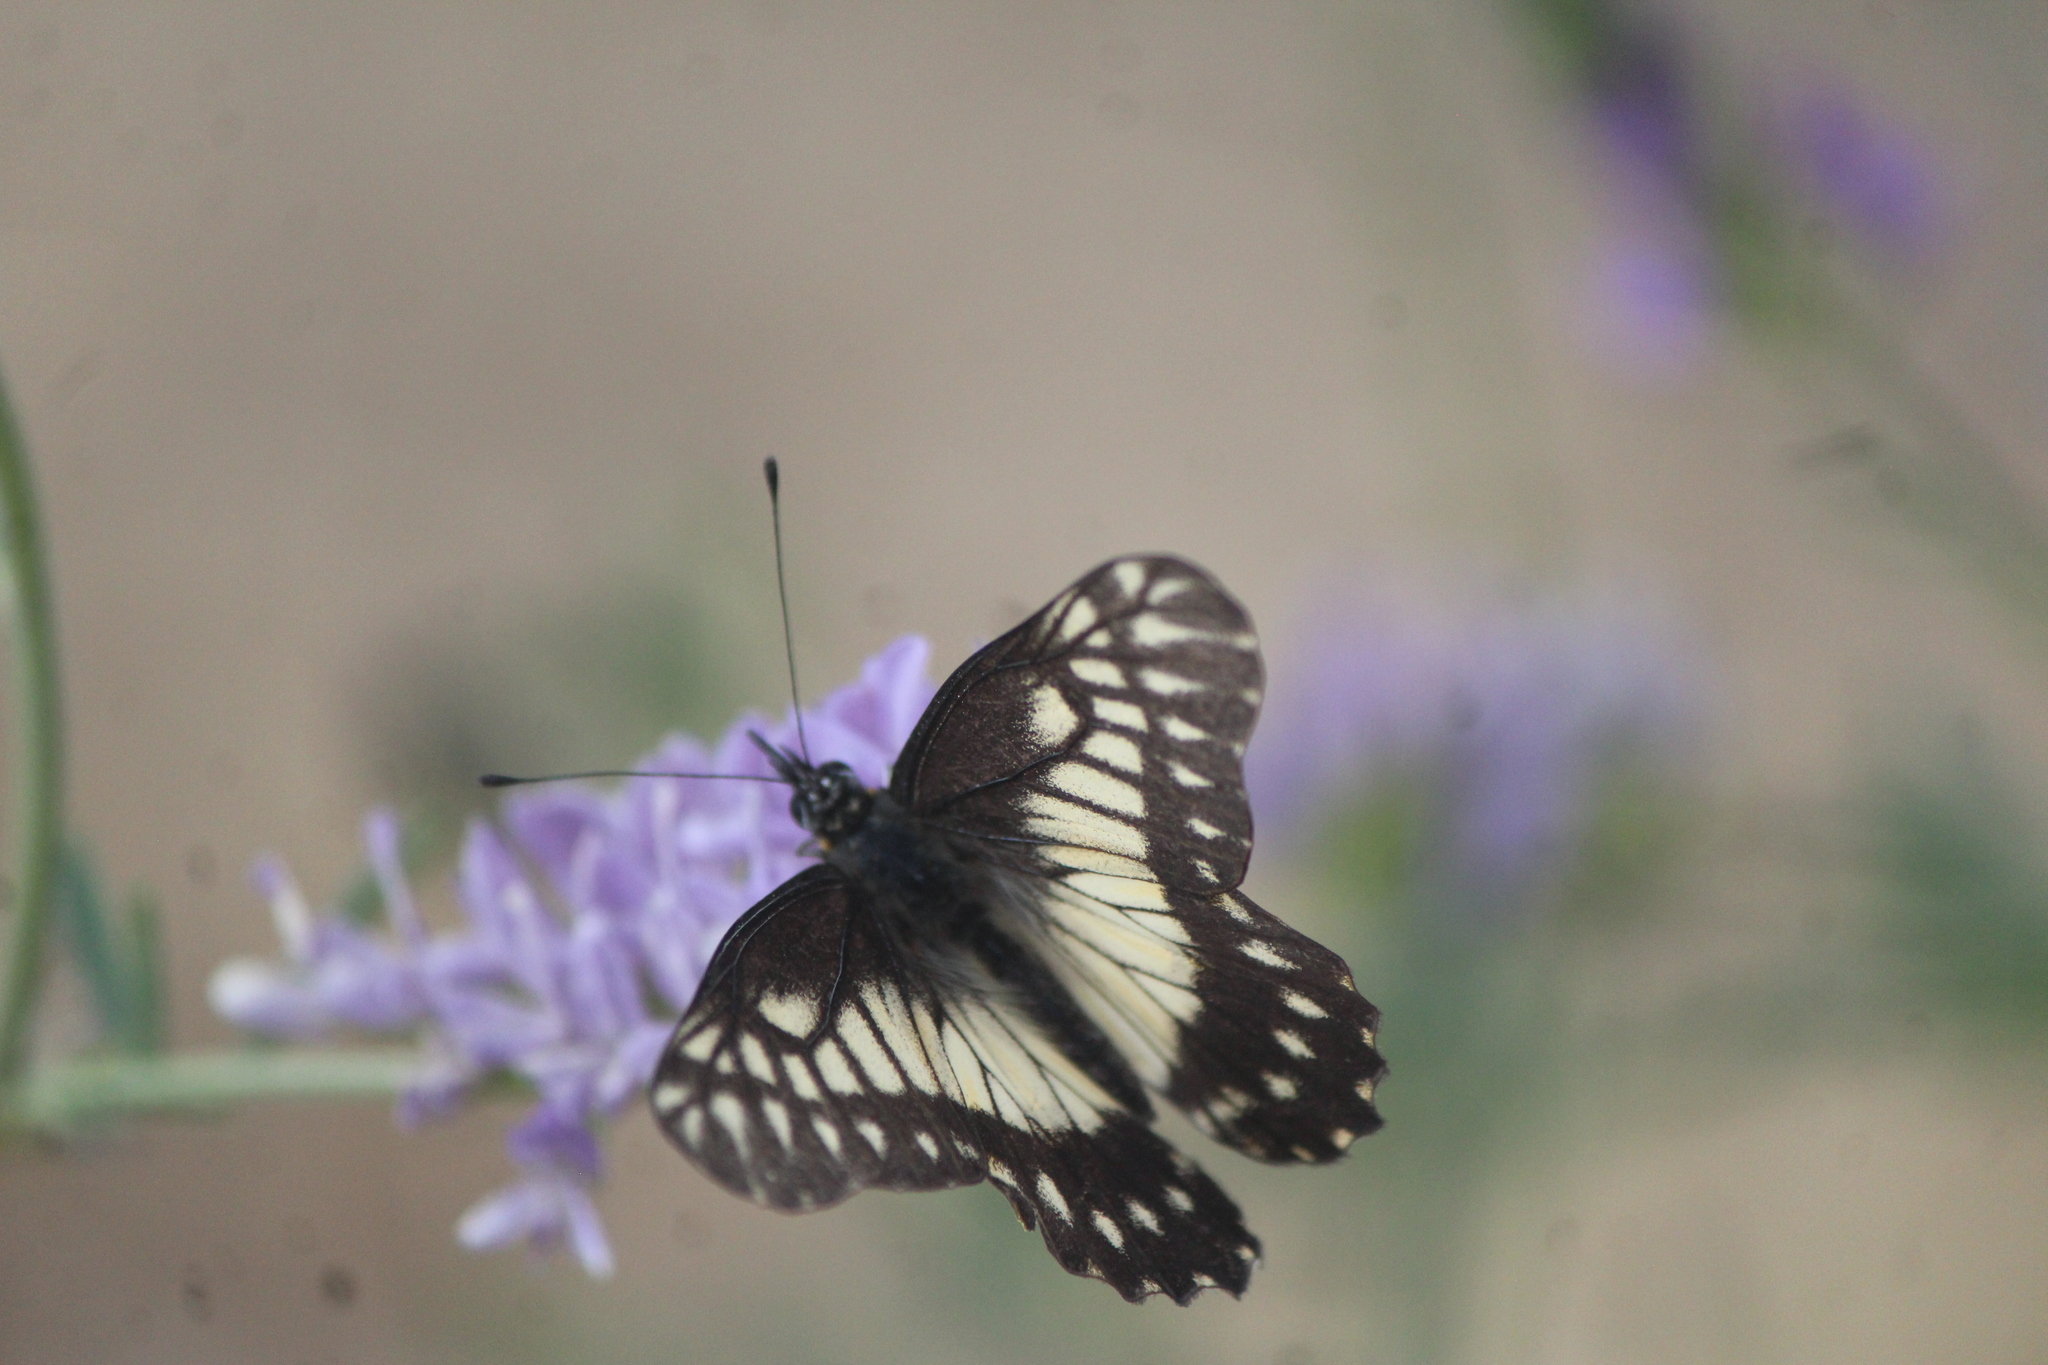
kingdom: Animalia
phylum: Arthropoda
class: Insecta
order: Lepidoptera
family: Pieridae
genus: Archonias
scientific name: Archonias nimbice
